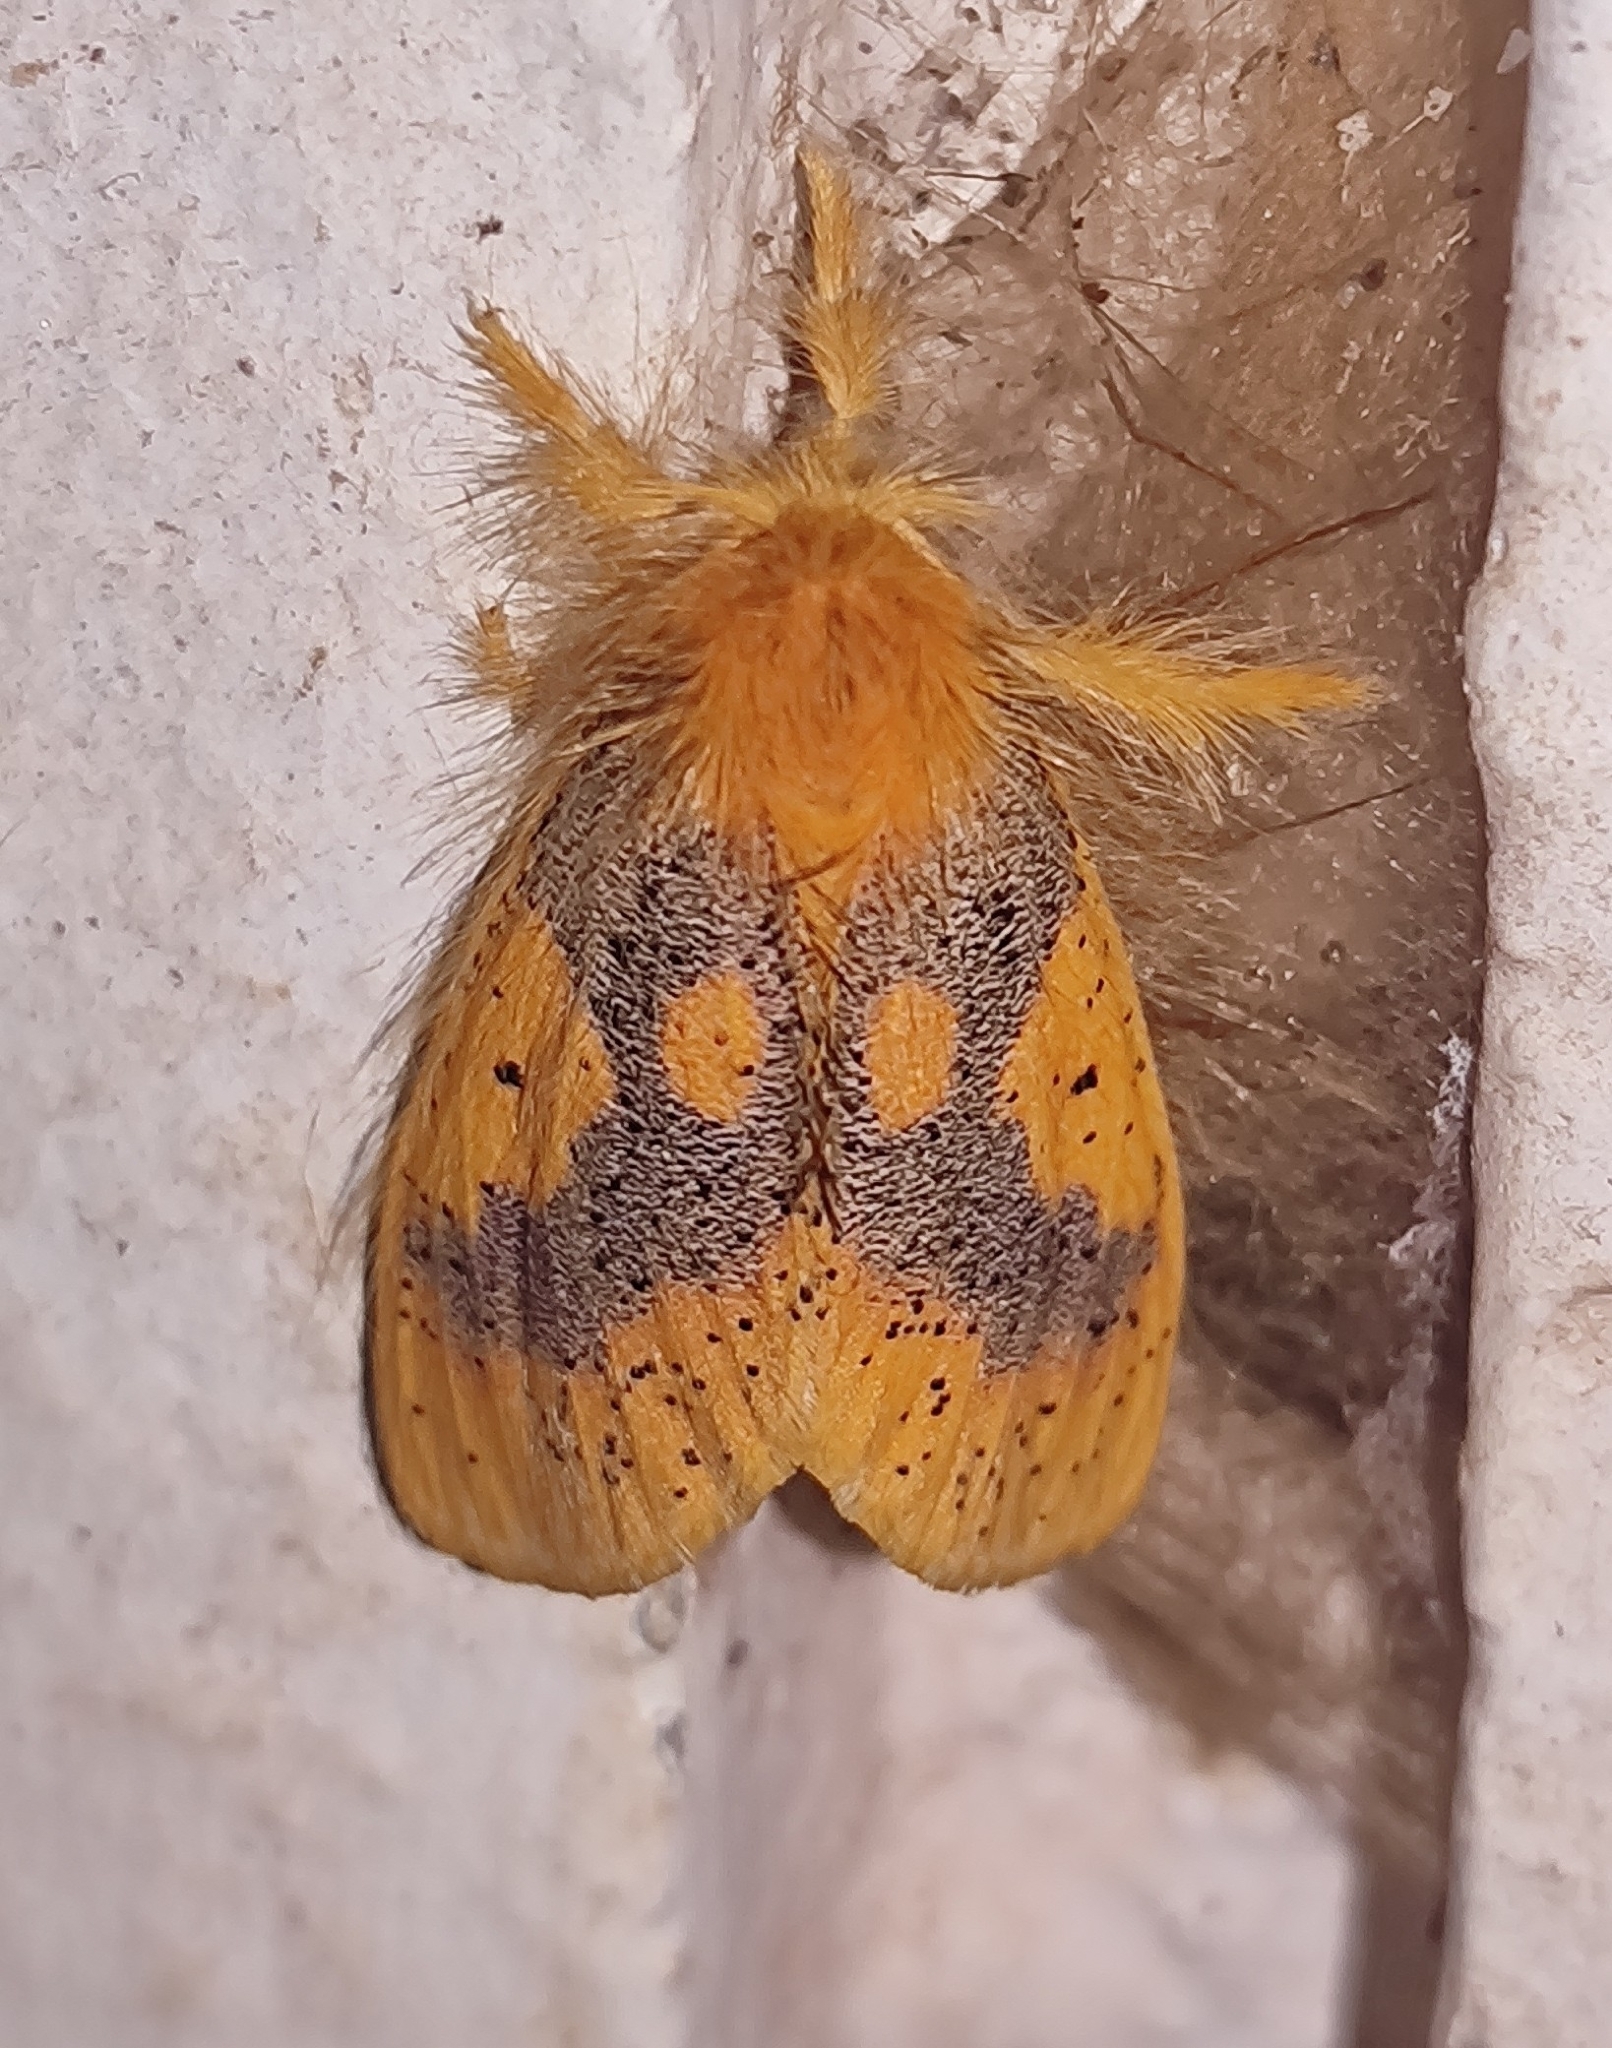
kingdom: Animalia
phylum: Arthropoda
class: Insecta
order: Lepidoptera
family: Erebidae
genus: Nygmia
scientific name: Nygmia icilia
